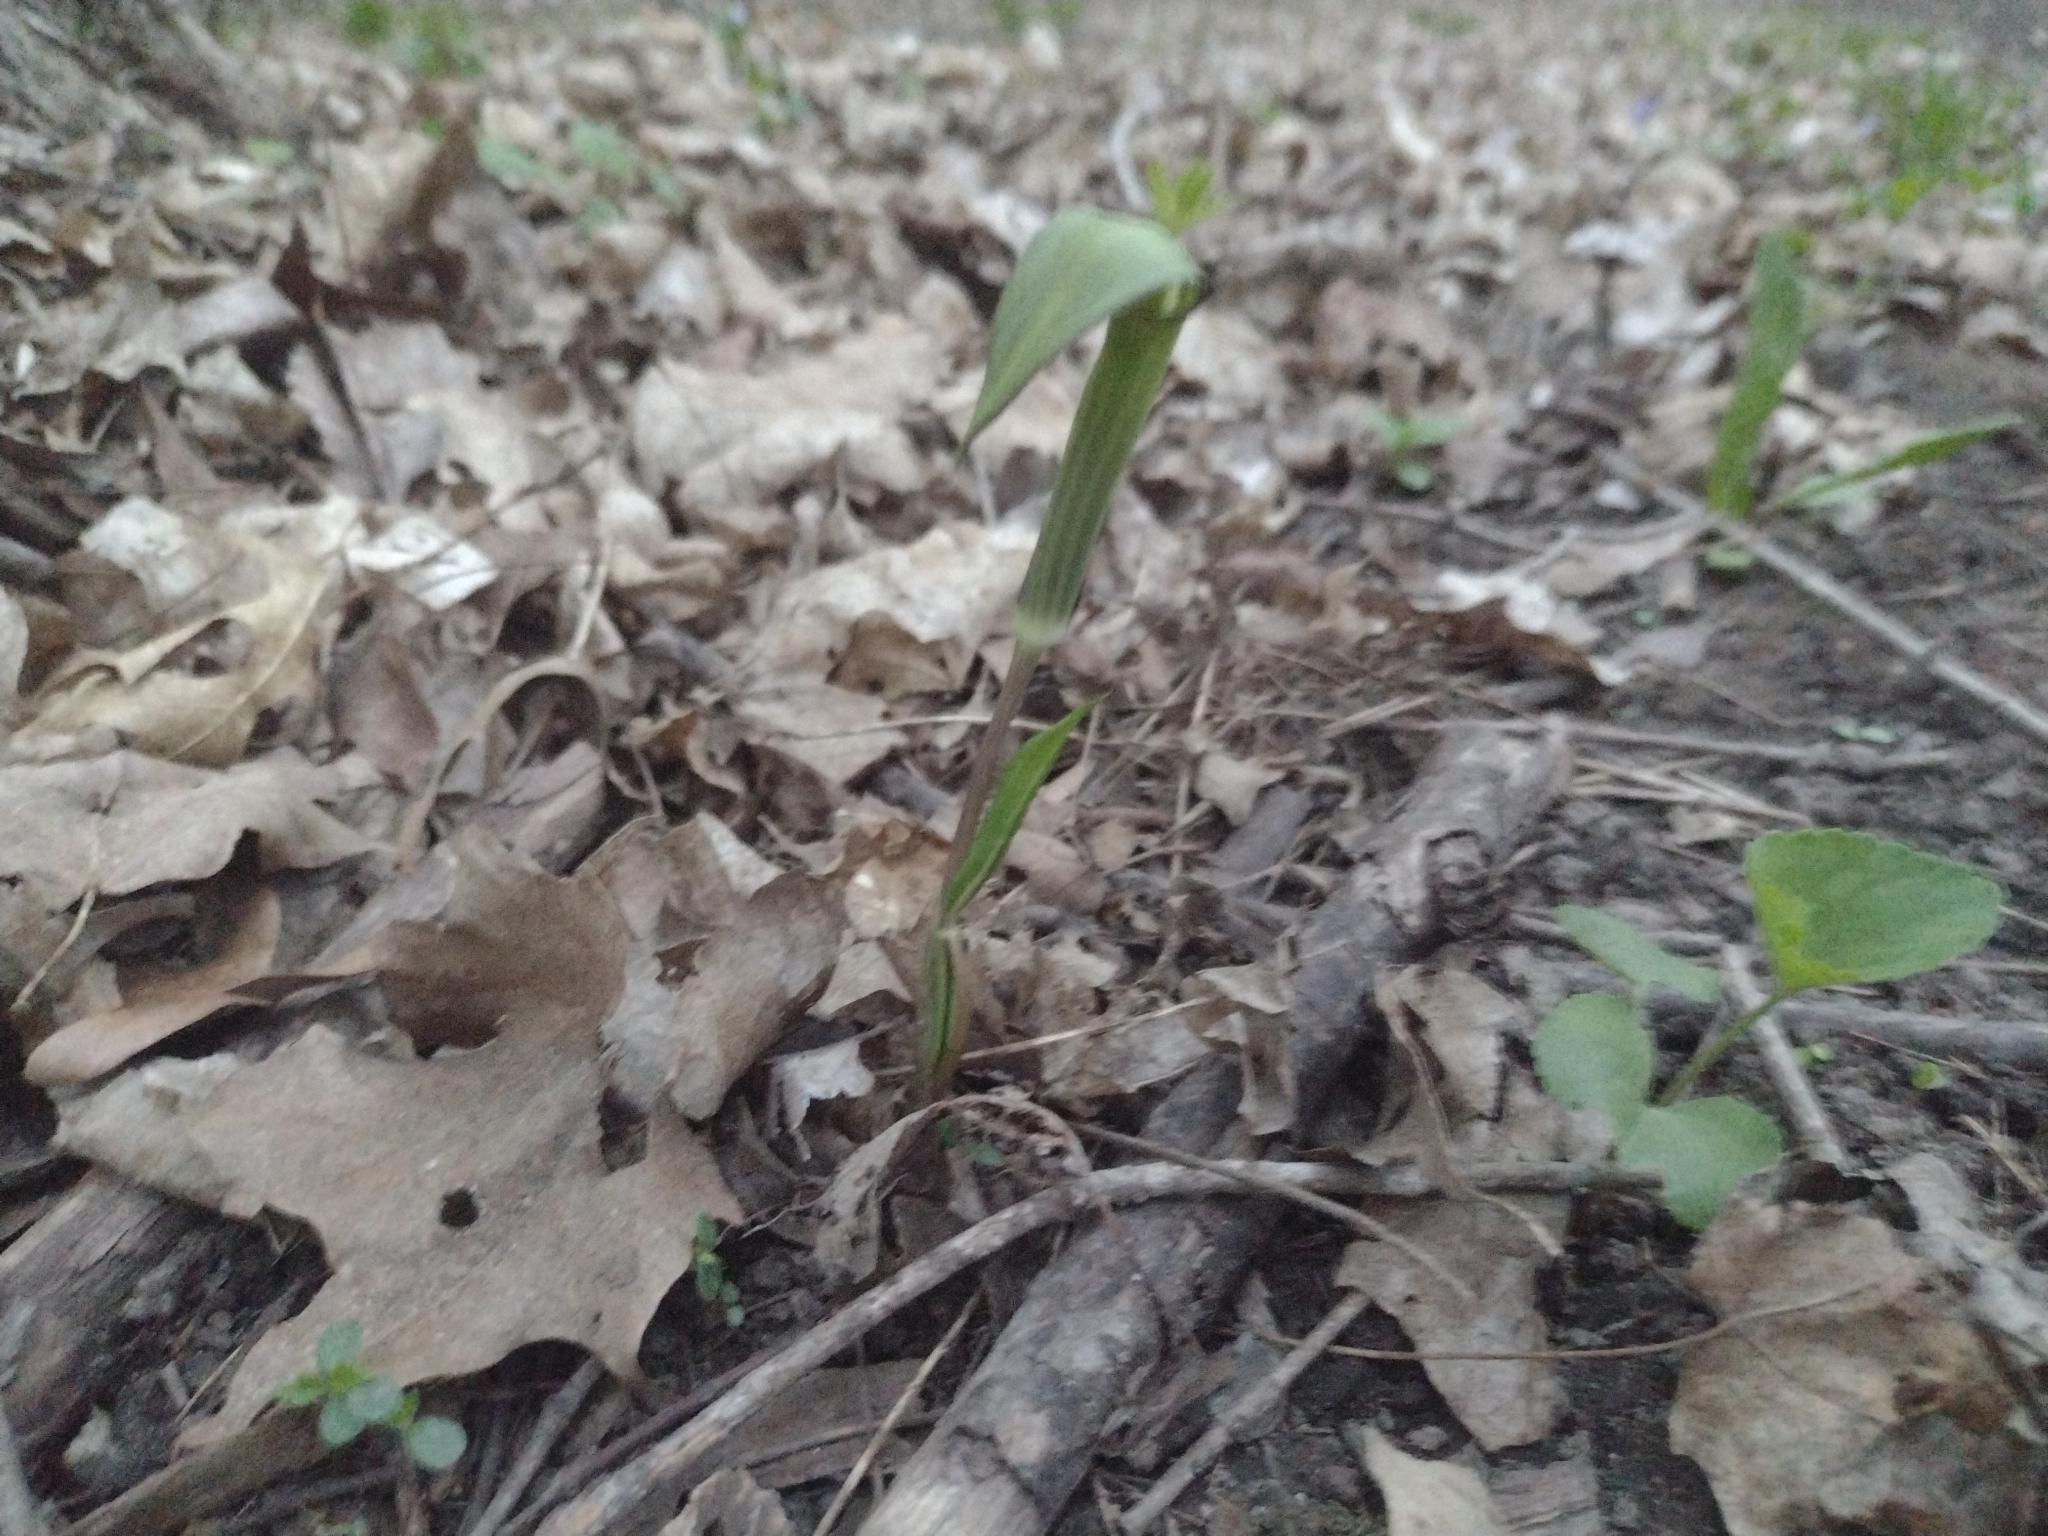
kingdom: Plantae
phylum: Tracheophyta
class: Liliopsida
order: Alismatales
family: Araceae
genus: Arisaema
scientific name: Arisaema triphyllum
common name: Jack-in-the-pulpit
